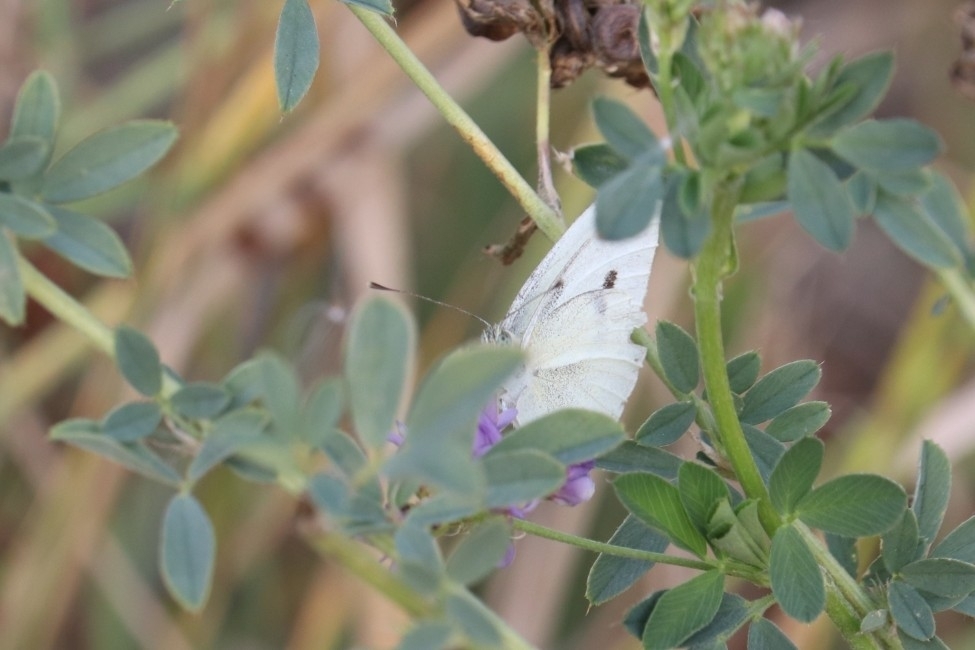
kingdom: Animalia
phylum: Arthropoda
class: Insecta
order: Lepidoptera
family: Pieridae
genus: Pieris
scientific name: Pieris rapae
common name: Small white
